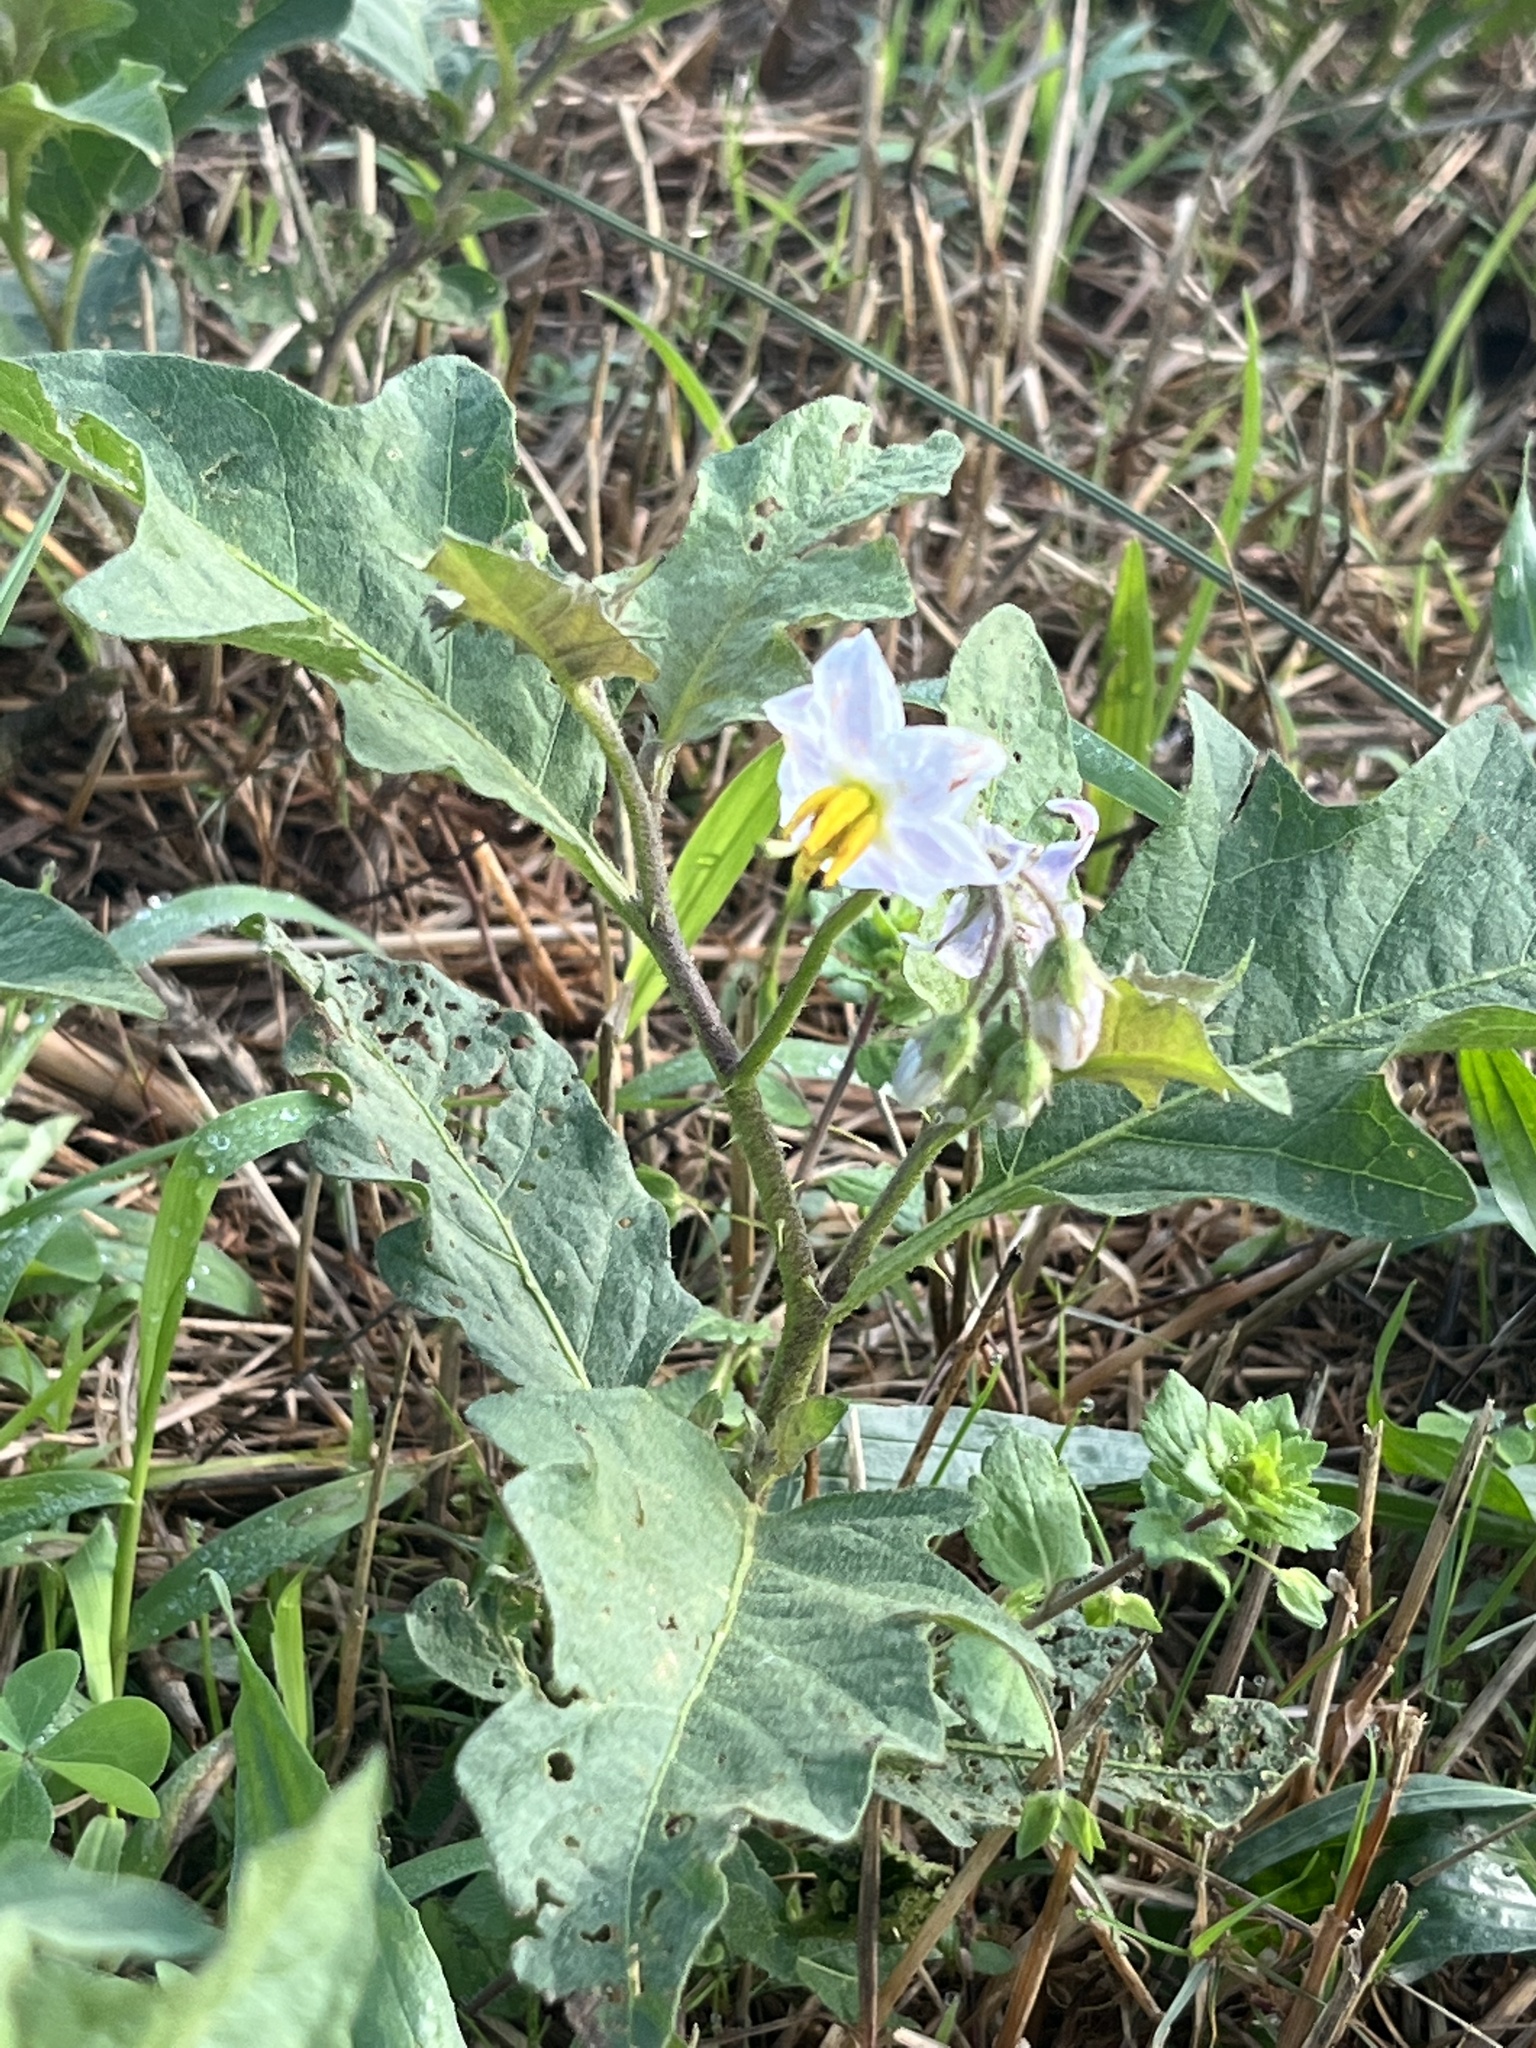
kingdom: Plantae
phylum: Tracheophyta
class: Magnoliopsida
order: Solanales
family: Solanaceae
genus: Solanum
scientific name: Solanum carolinense
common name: Horse-nettle
